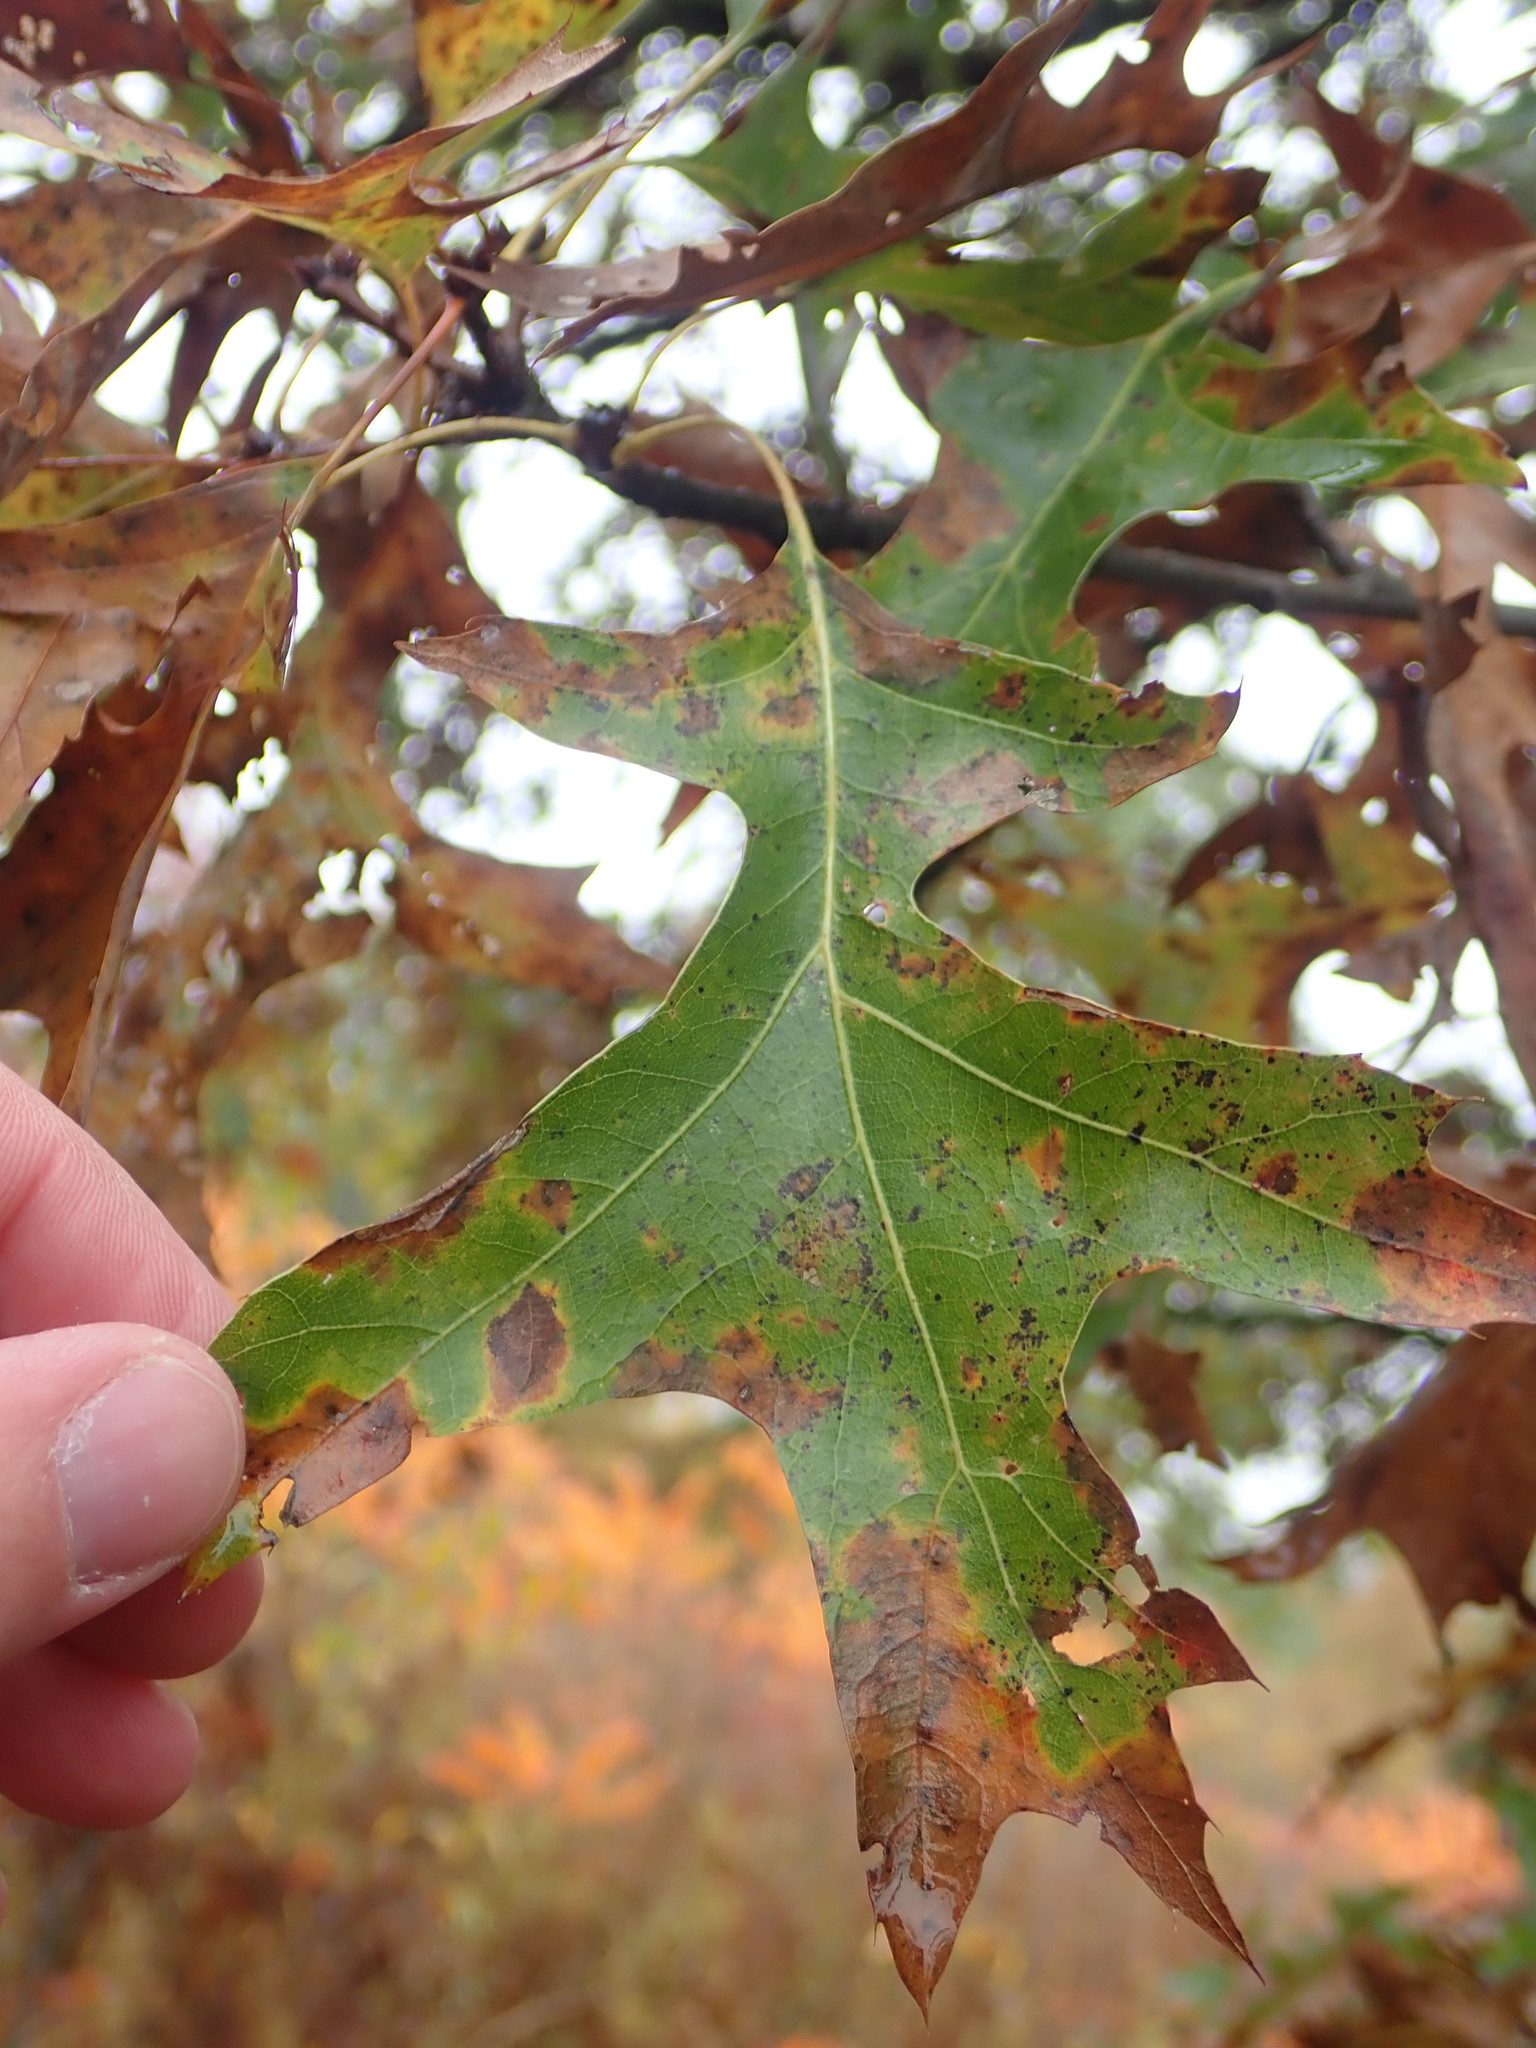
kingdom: Plantae
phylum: Tracheophyta
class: Magnoliopsida
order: Fagales
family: Fagaceae
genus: Quercus
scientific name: Quercus palustris
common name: Pin oak
